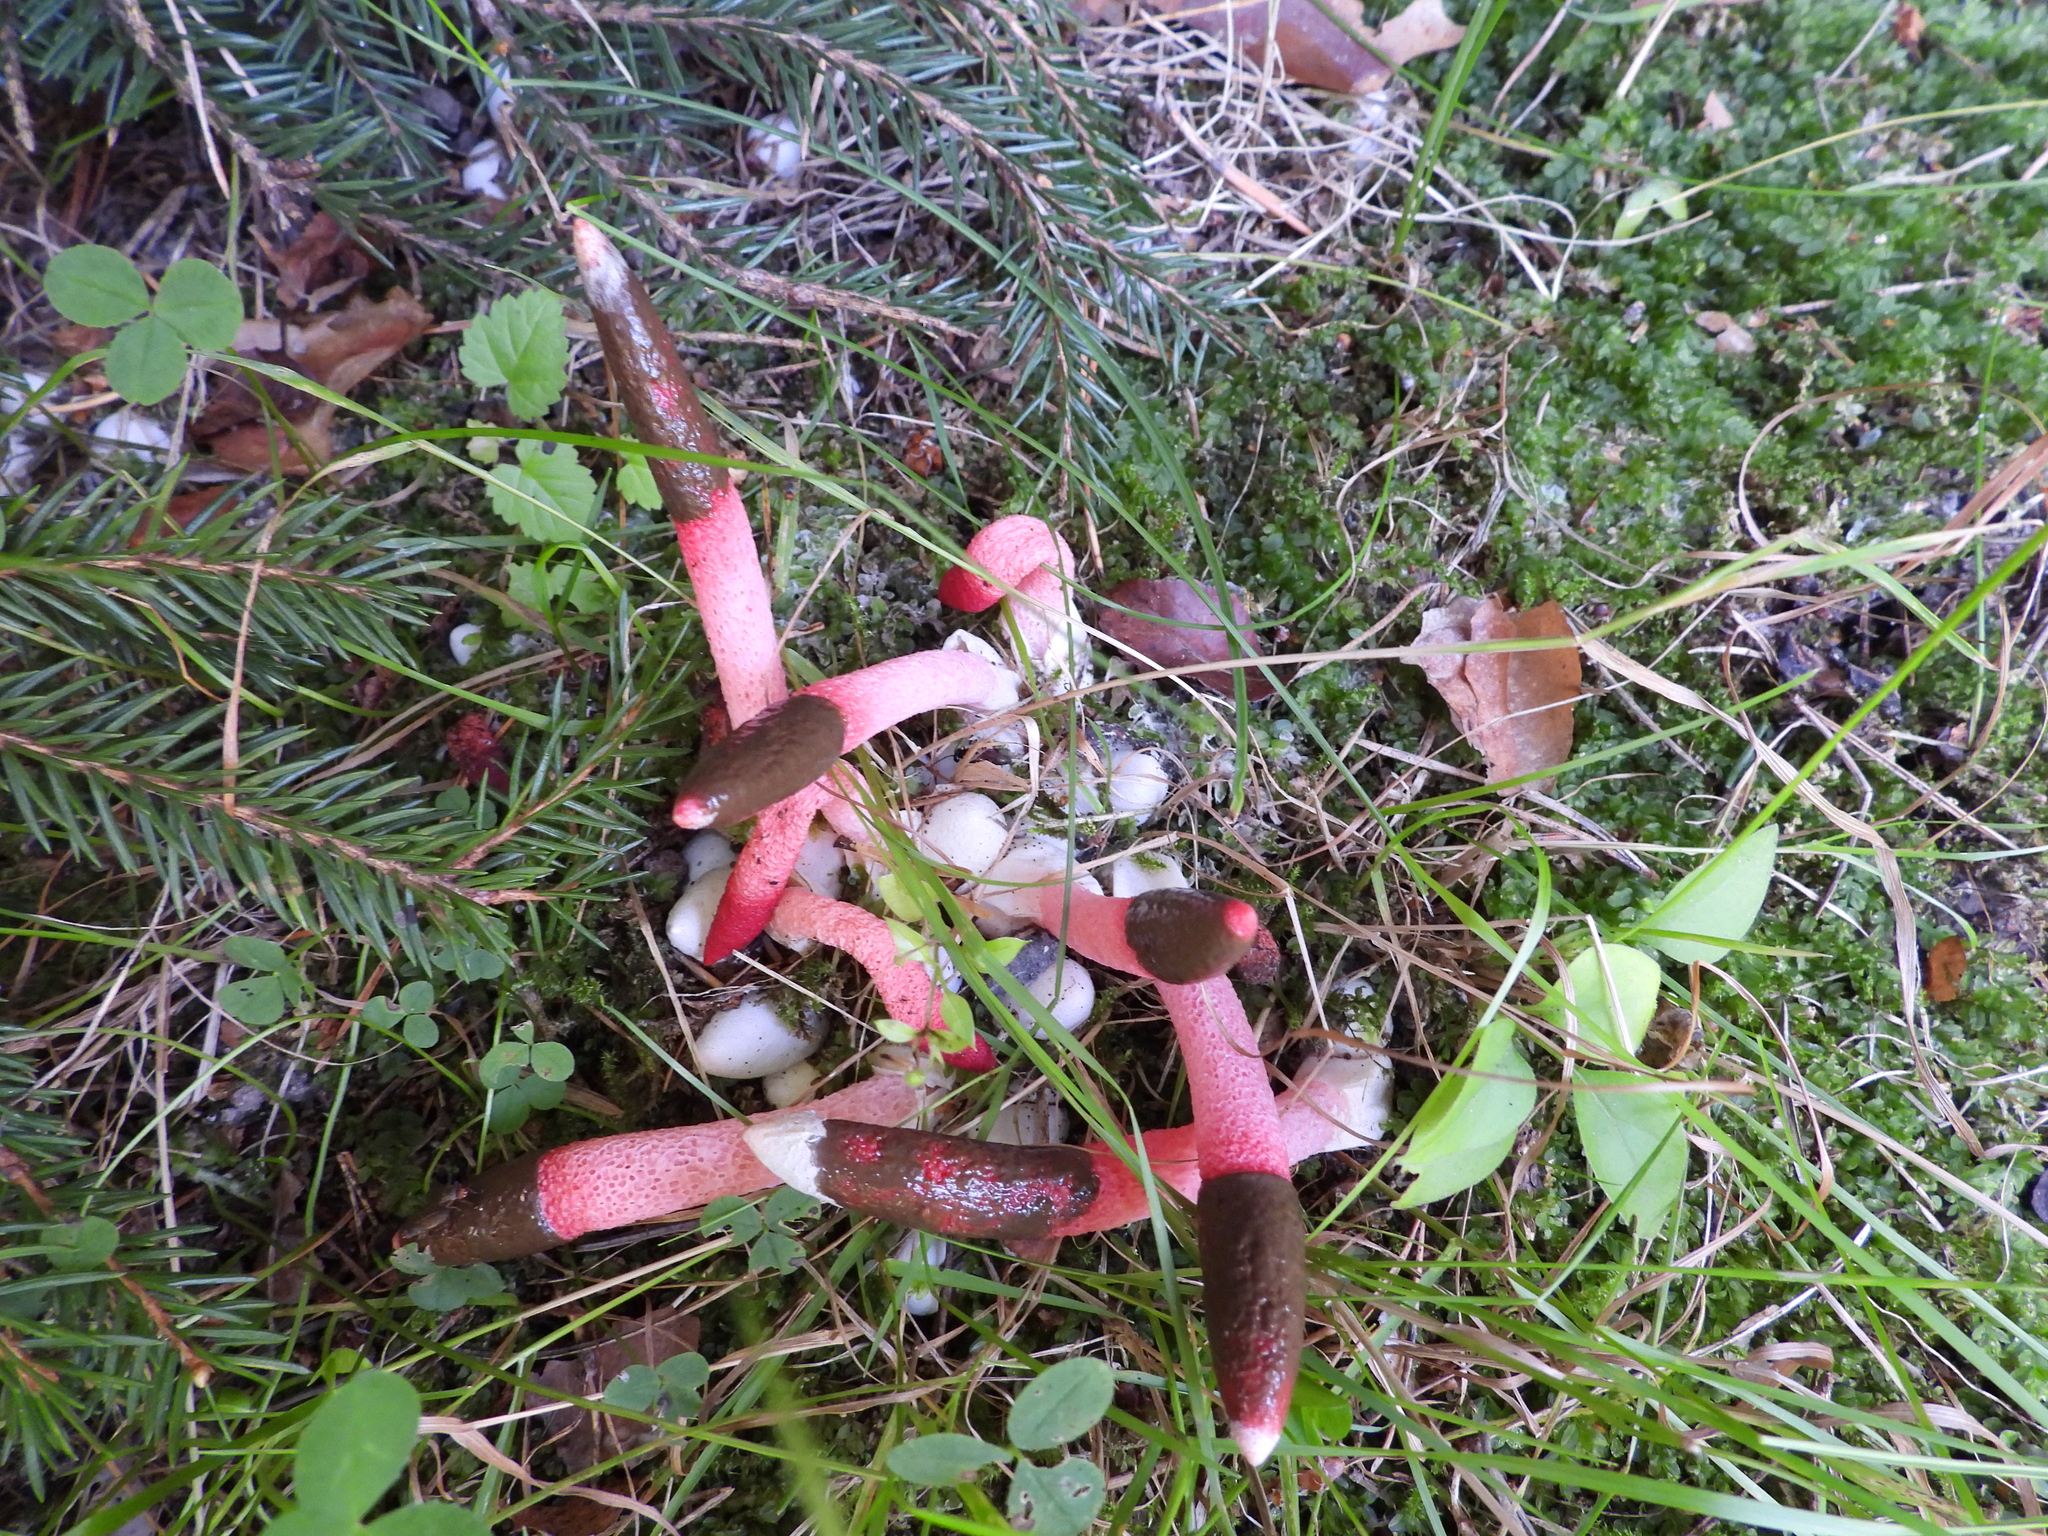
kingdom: Fungi
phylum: Basidiomycota
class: Agaricomycetes
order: Phallales
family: Phallaceae
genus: Mutinus
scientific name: Mutinus ravenelii
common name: Red stinkhorn
